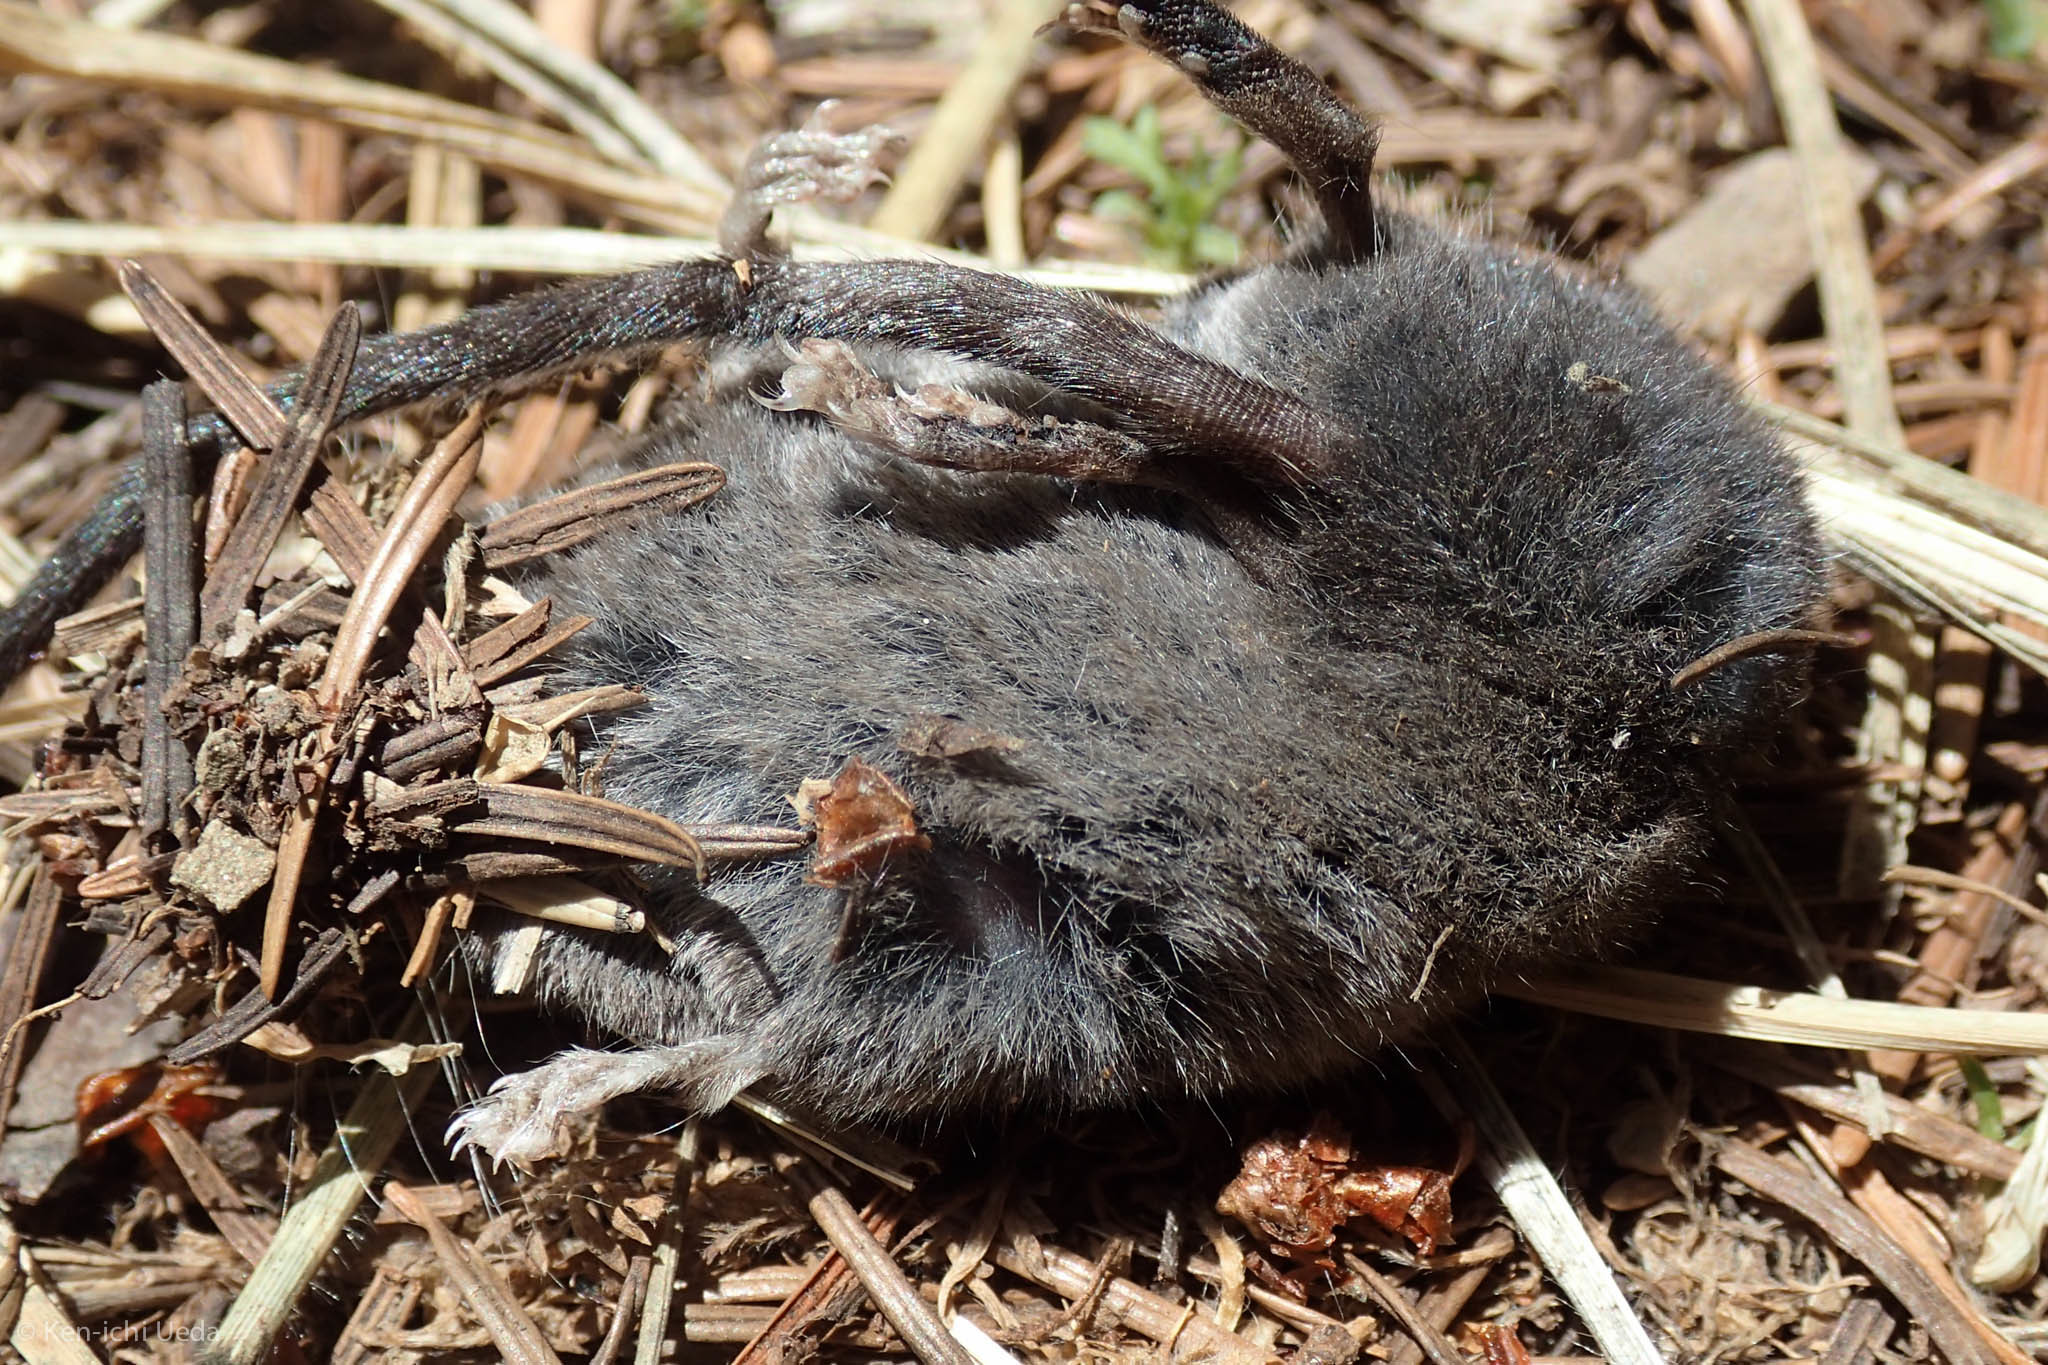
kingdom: Animalia
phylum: Chordata
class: Mammalia
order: Soricomorpha
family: Soricidae
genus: Sorex
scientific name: Sorex trowbridgii
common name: Trowbridge's shrew
